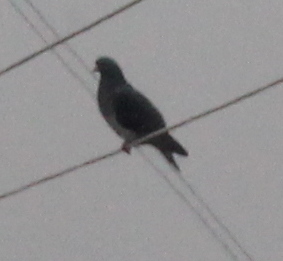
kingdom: Animalia
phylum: Chordata
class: Aves
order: Columbiformes
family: Columbidae
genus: Columba
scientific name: Columba livia
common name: Rock pigeon
